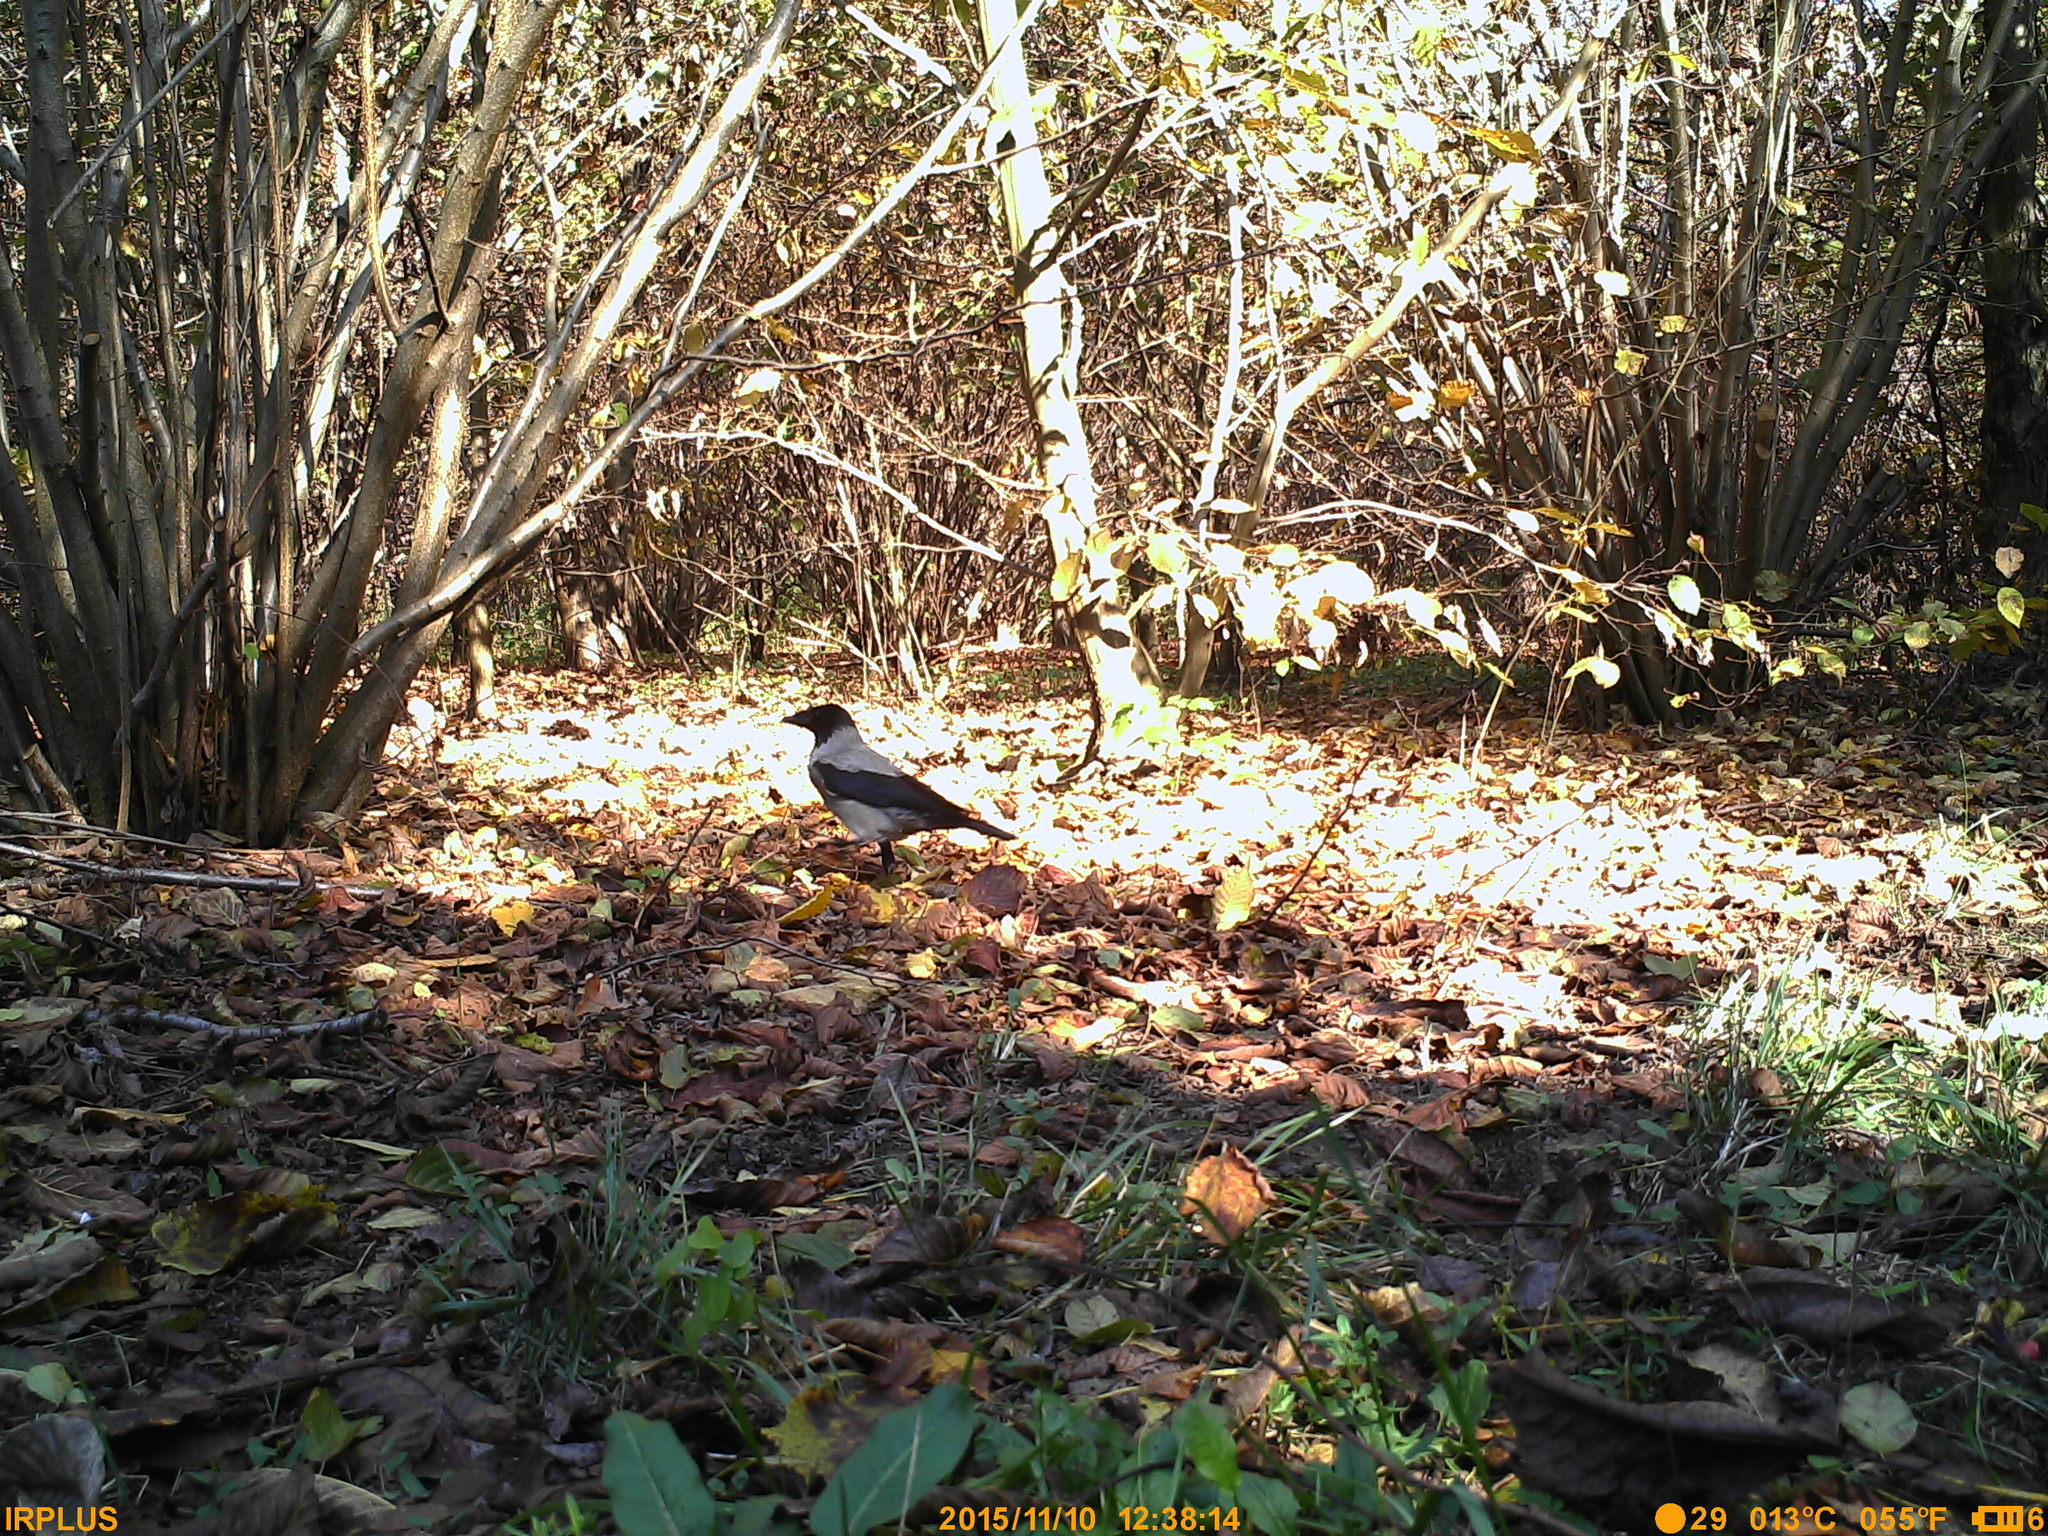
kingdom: Animalia
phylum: Chordata
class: Aves
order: Passeriformes
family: Corvidae
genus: Corvus
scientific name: Corvus cornix
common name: Hooded crow
